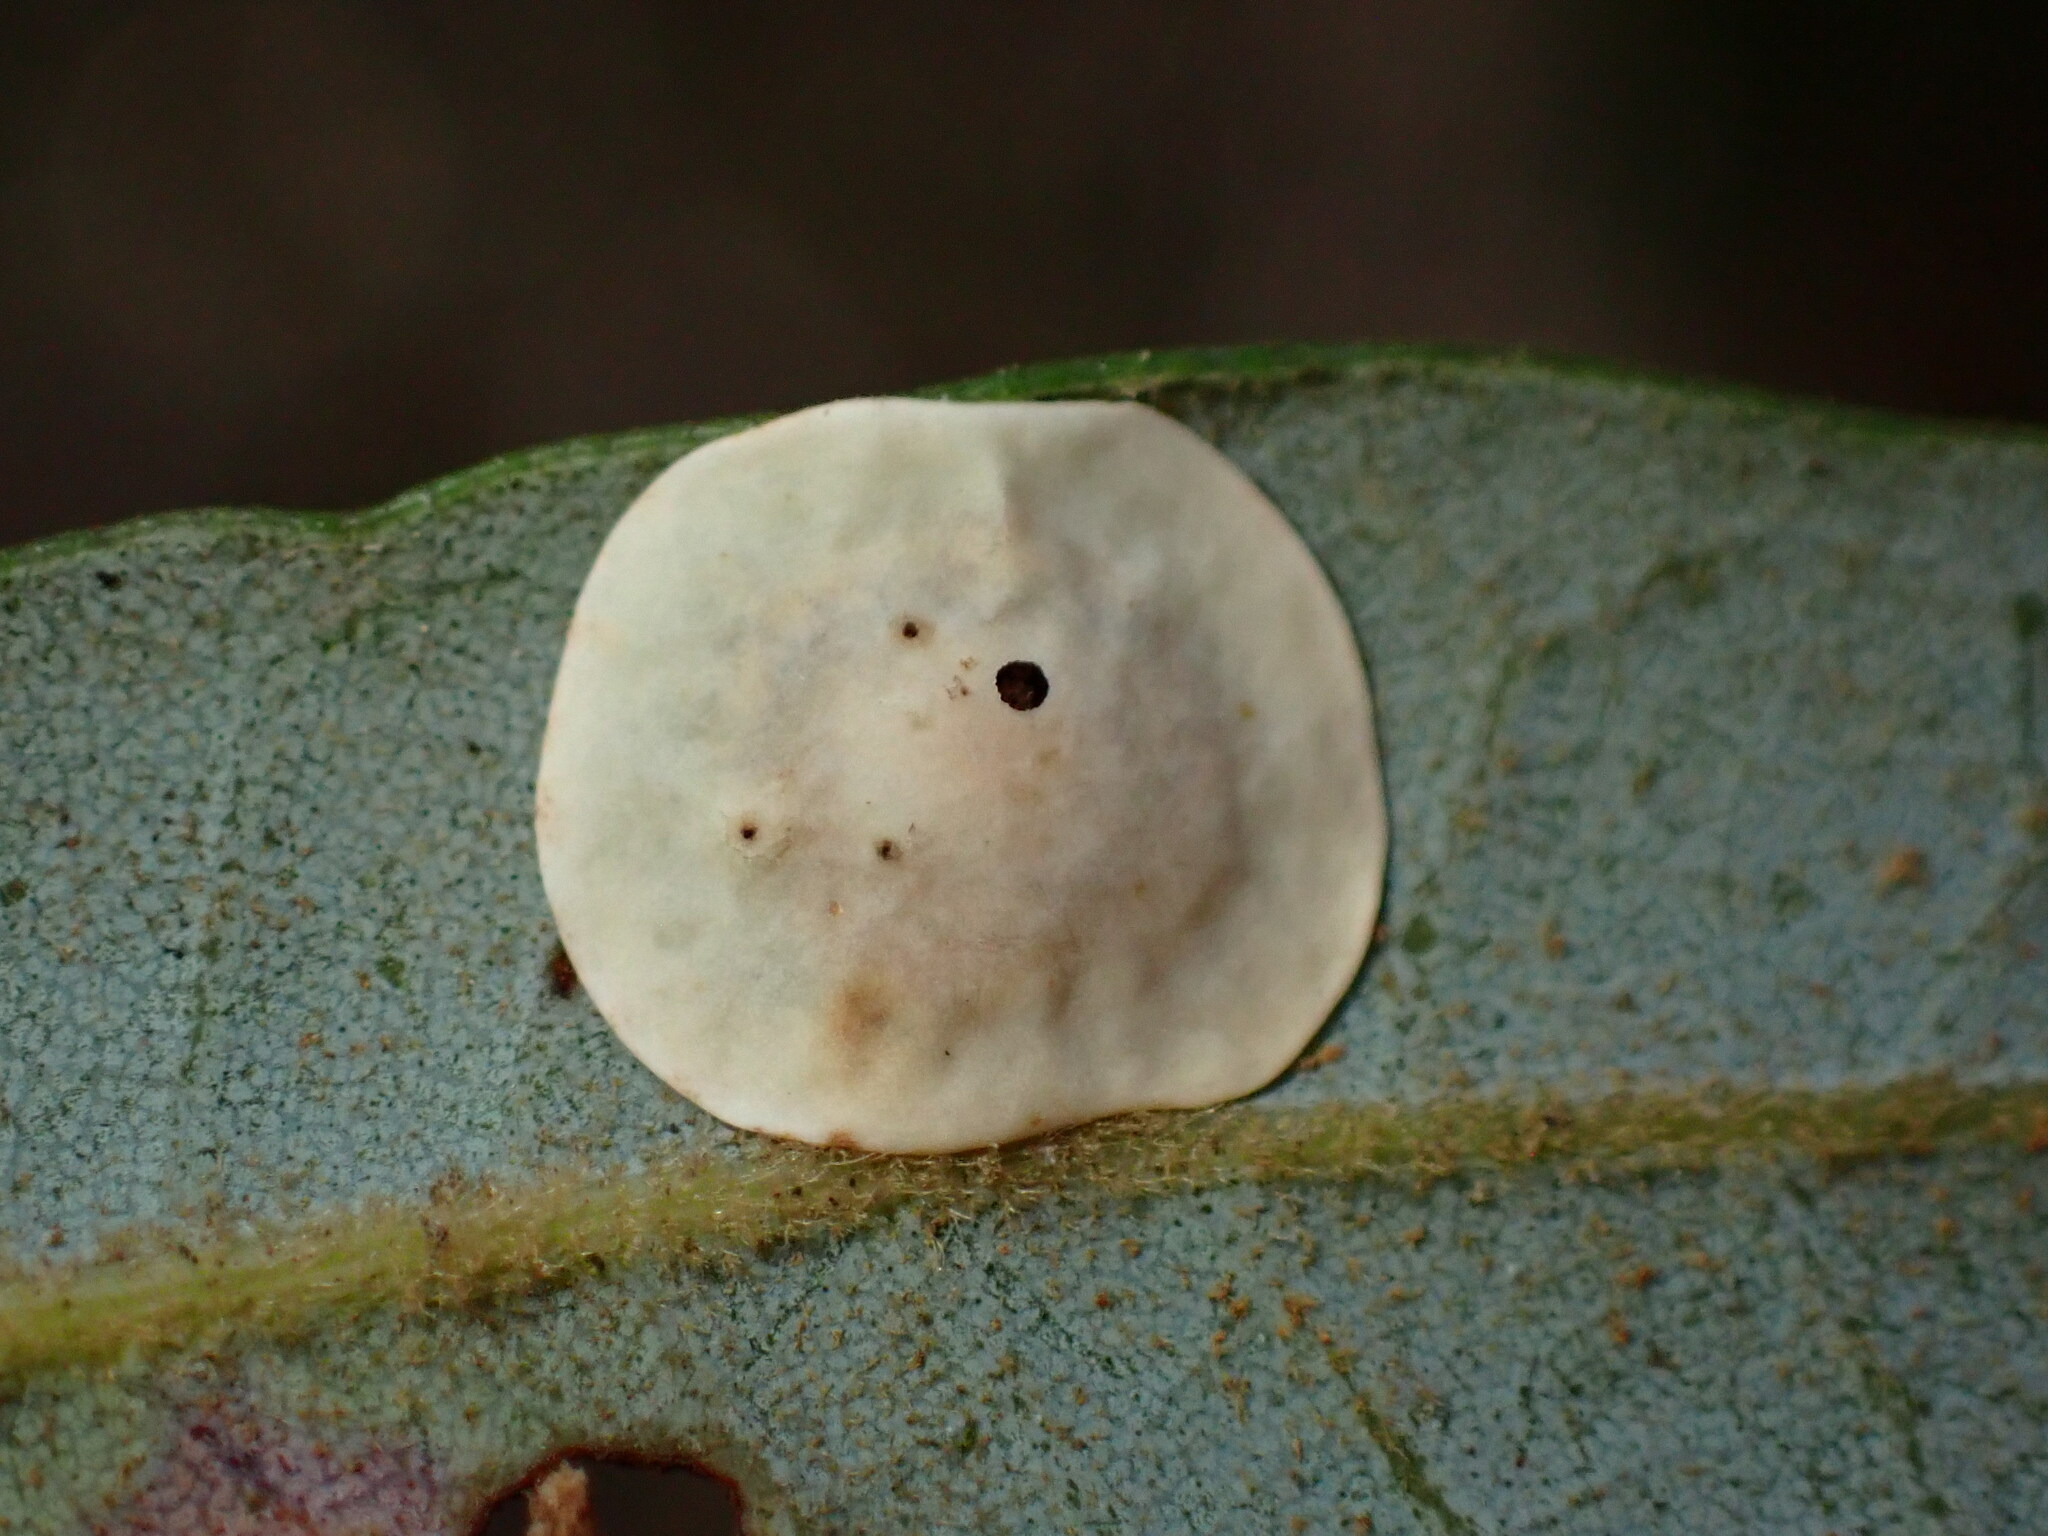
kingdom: Animalia
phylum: Arthropoda
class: Insecta
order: Hymenoptera
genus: Paracraspis
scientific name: Paracraspis
